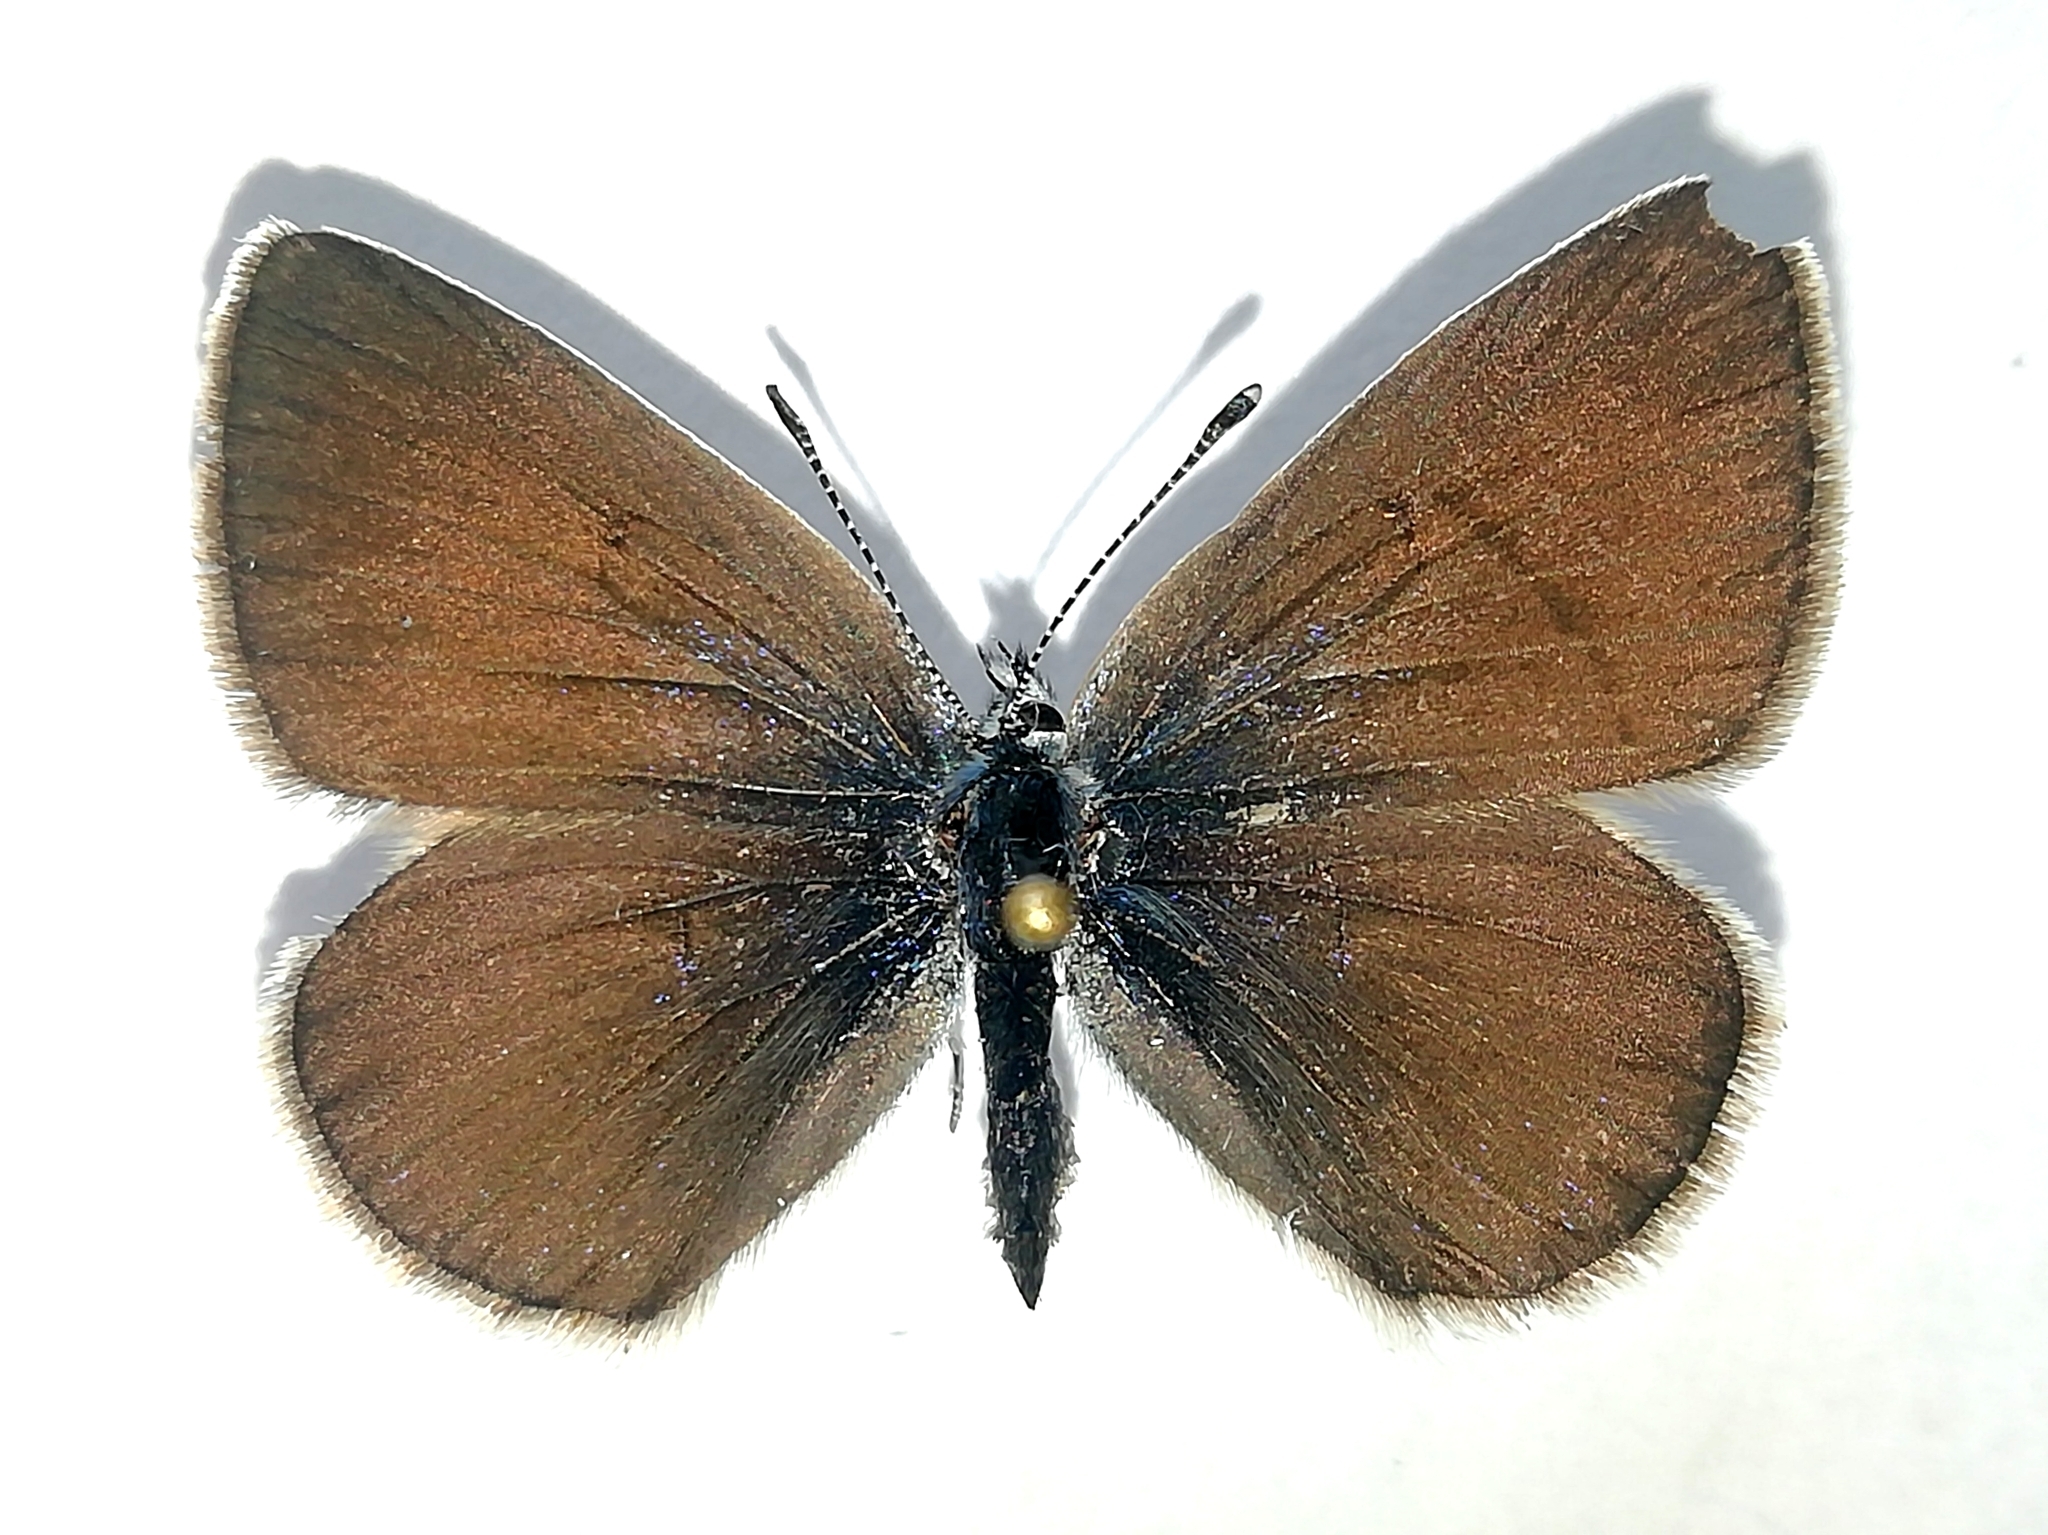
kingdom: Animalia
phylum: Arthropoda
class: Insecta
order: Lepidoptera
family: Lycaenidae
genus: Cyaniris
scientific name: Cyaniris semiargus
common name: Mazarine blue
